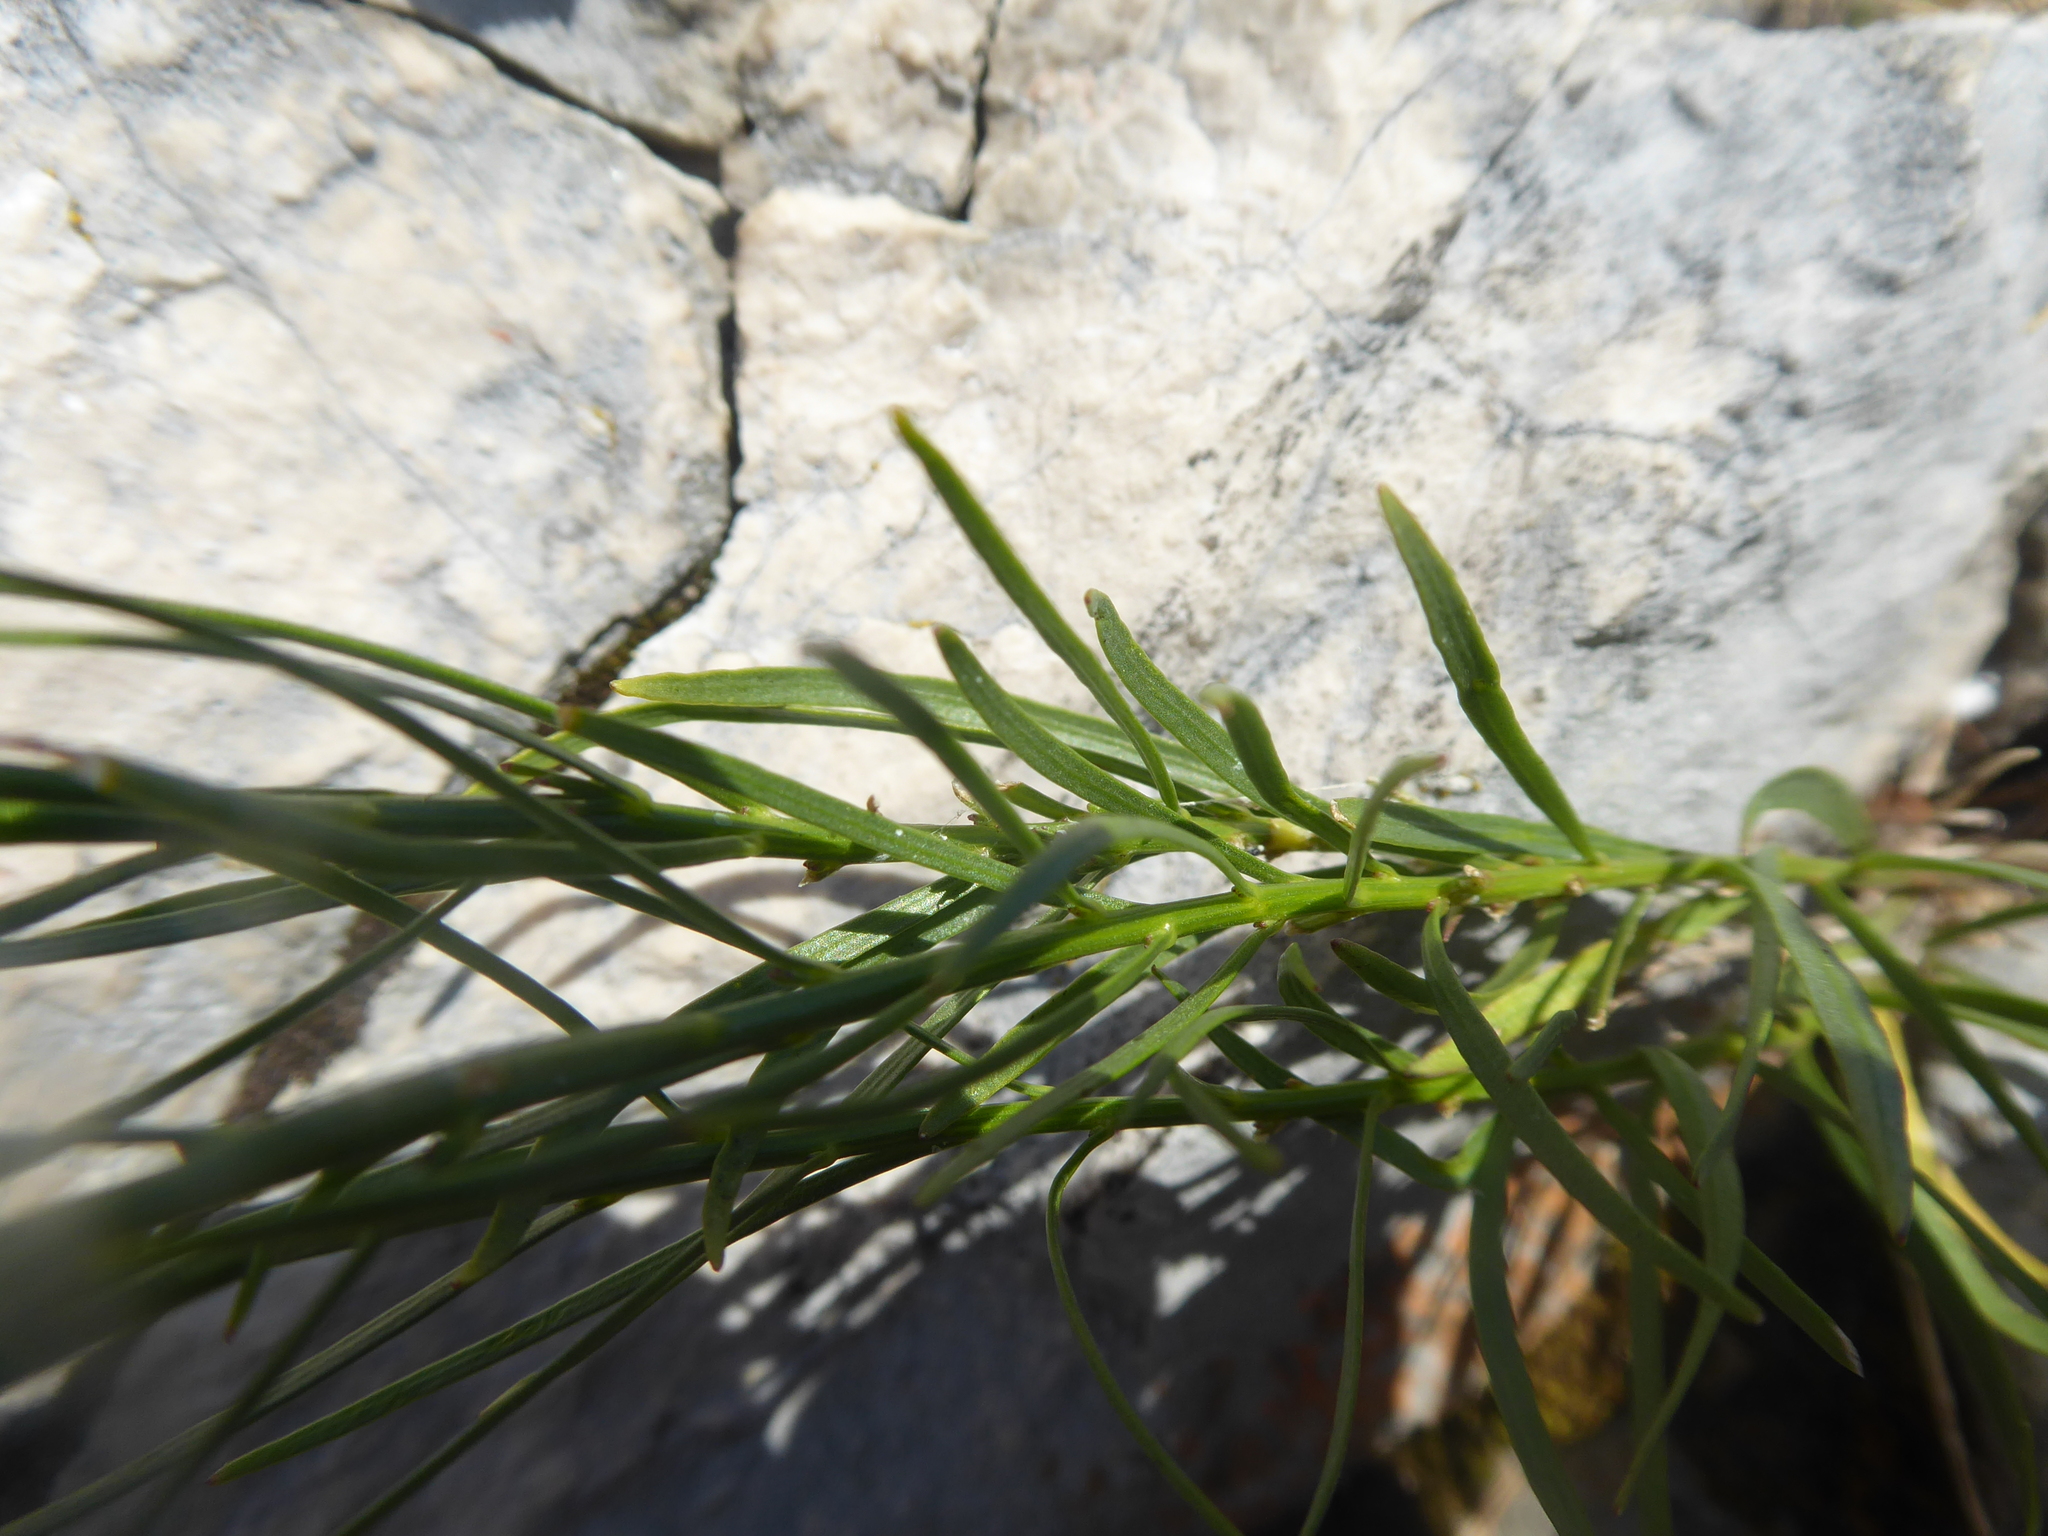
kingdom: Plantae
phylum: Tracheophyta
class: Magnoliopsida
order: Asterales
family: Campanulaceae
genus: Campanula
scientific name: Campanula marchesettii
